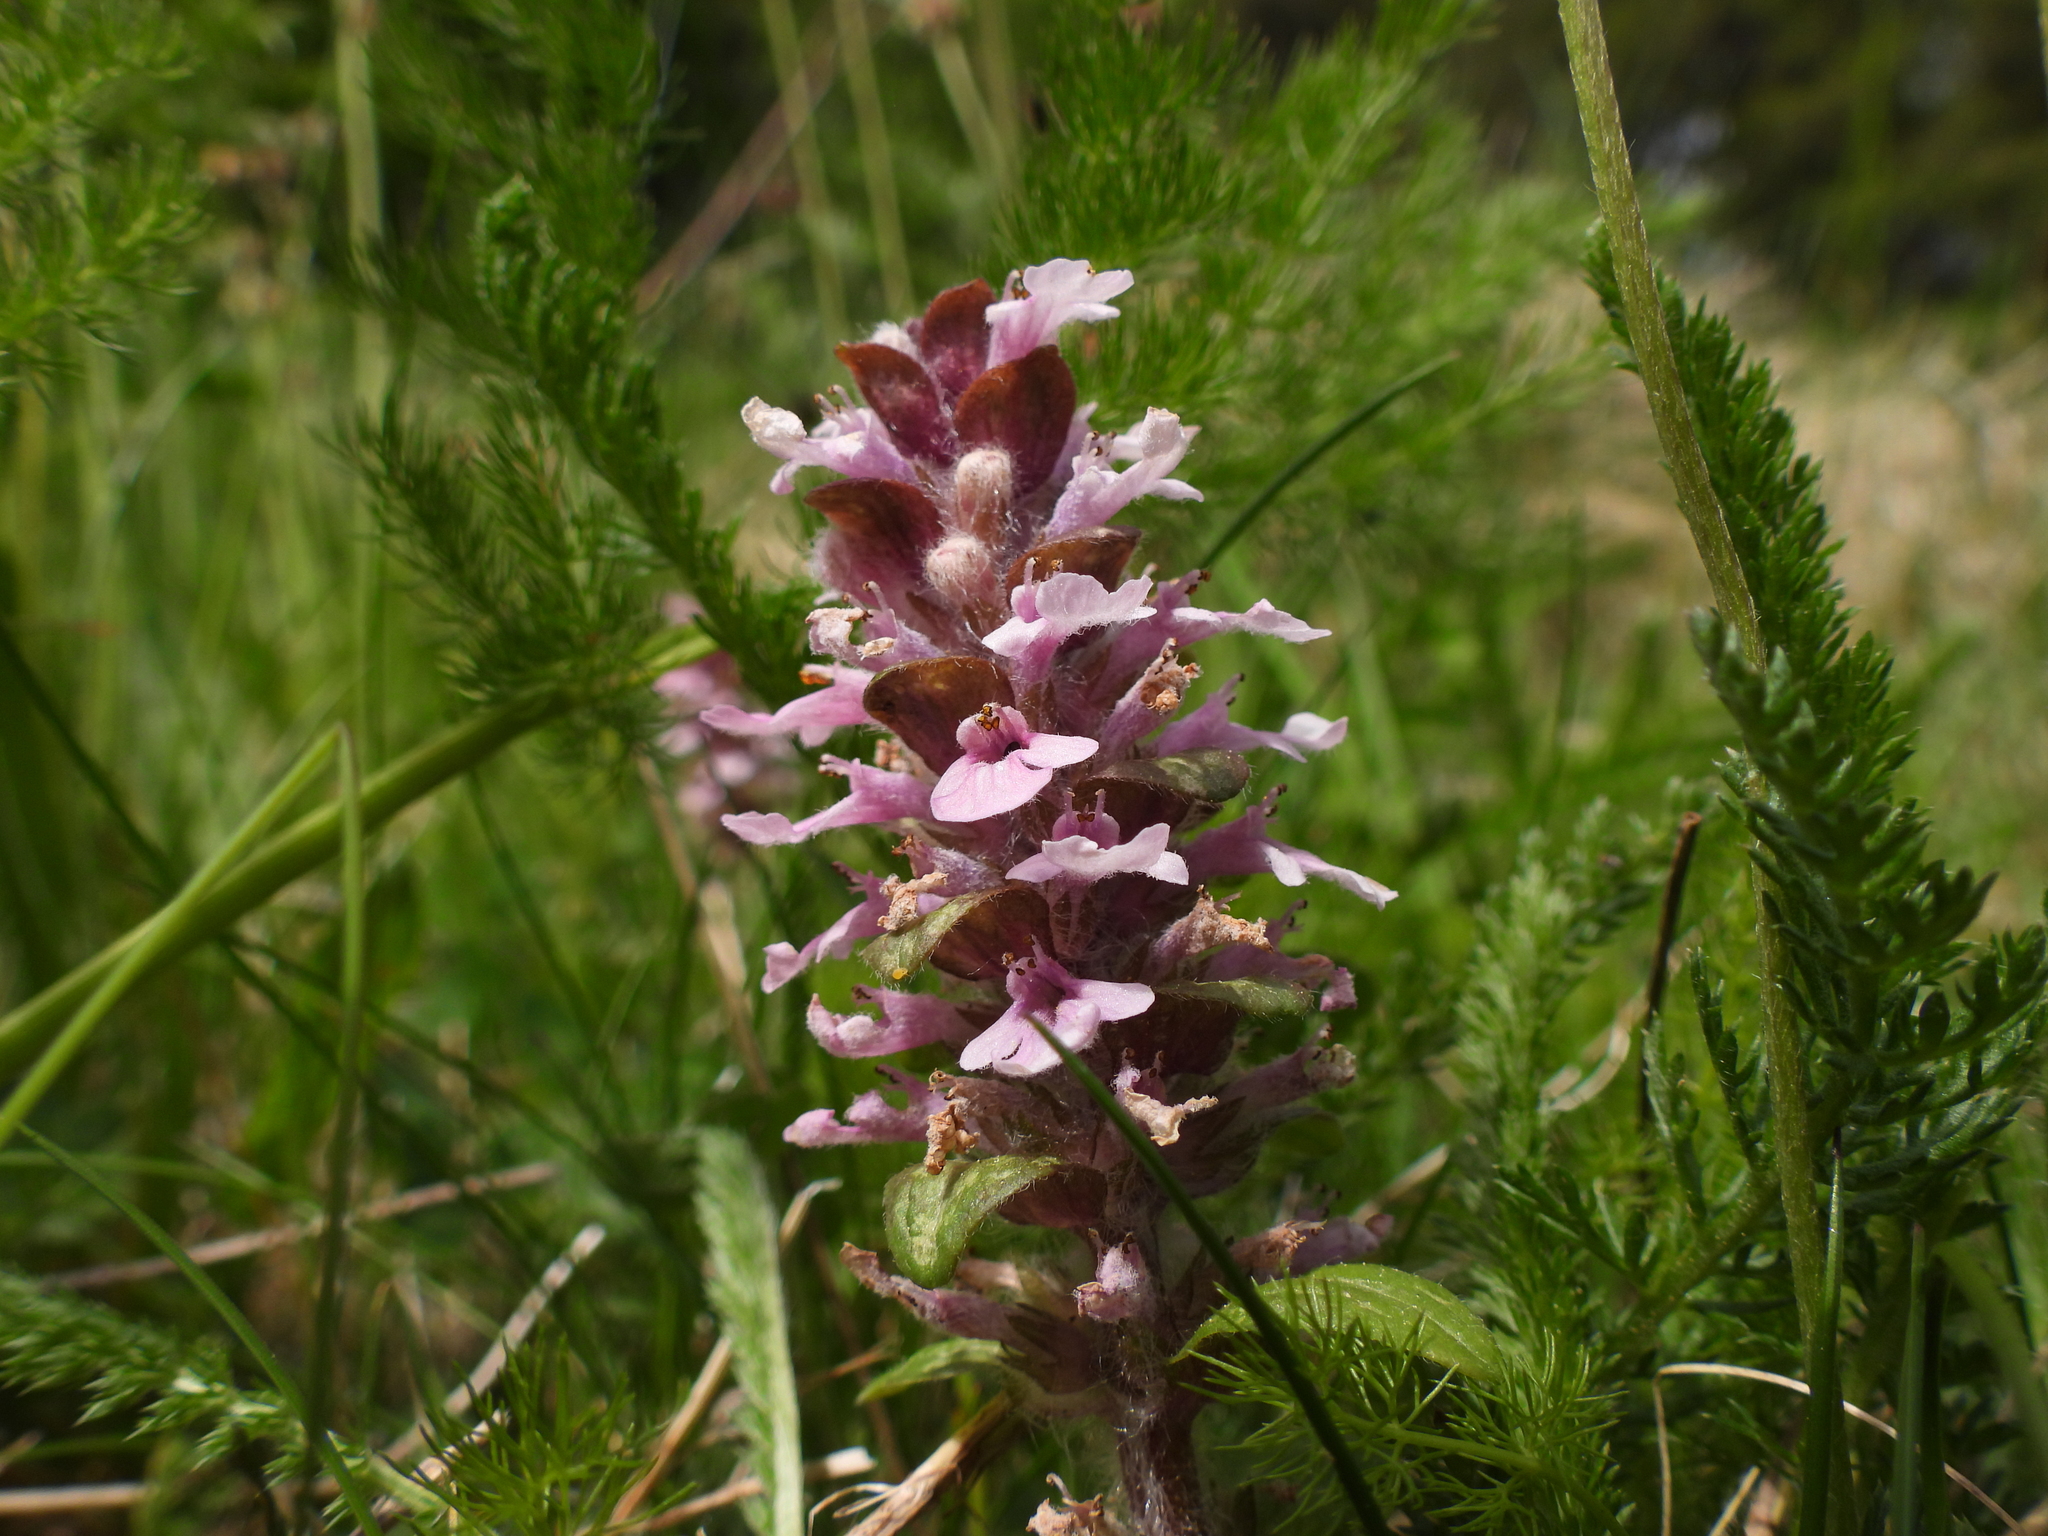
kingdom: Plantae
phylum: Tracheophyta
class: Magnoliopsida
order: Lamiales
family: Lamiaceae
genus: Ajuga
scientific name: Ajuga reptans
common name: Bugle
